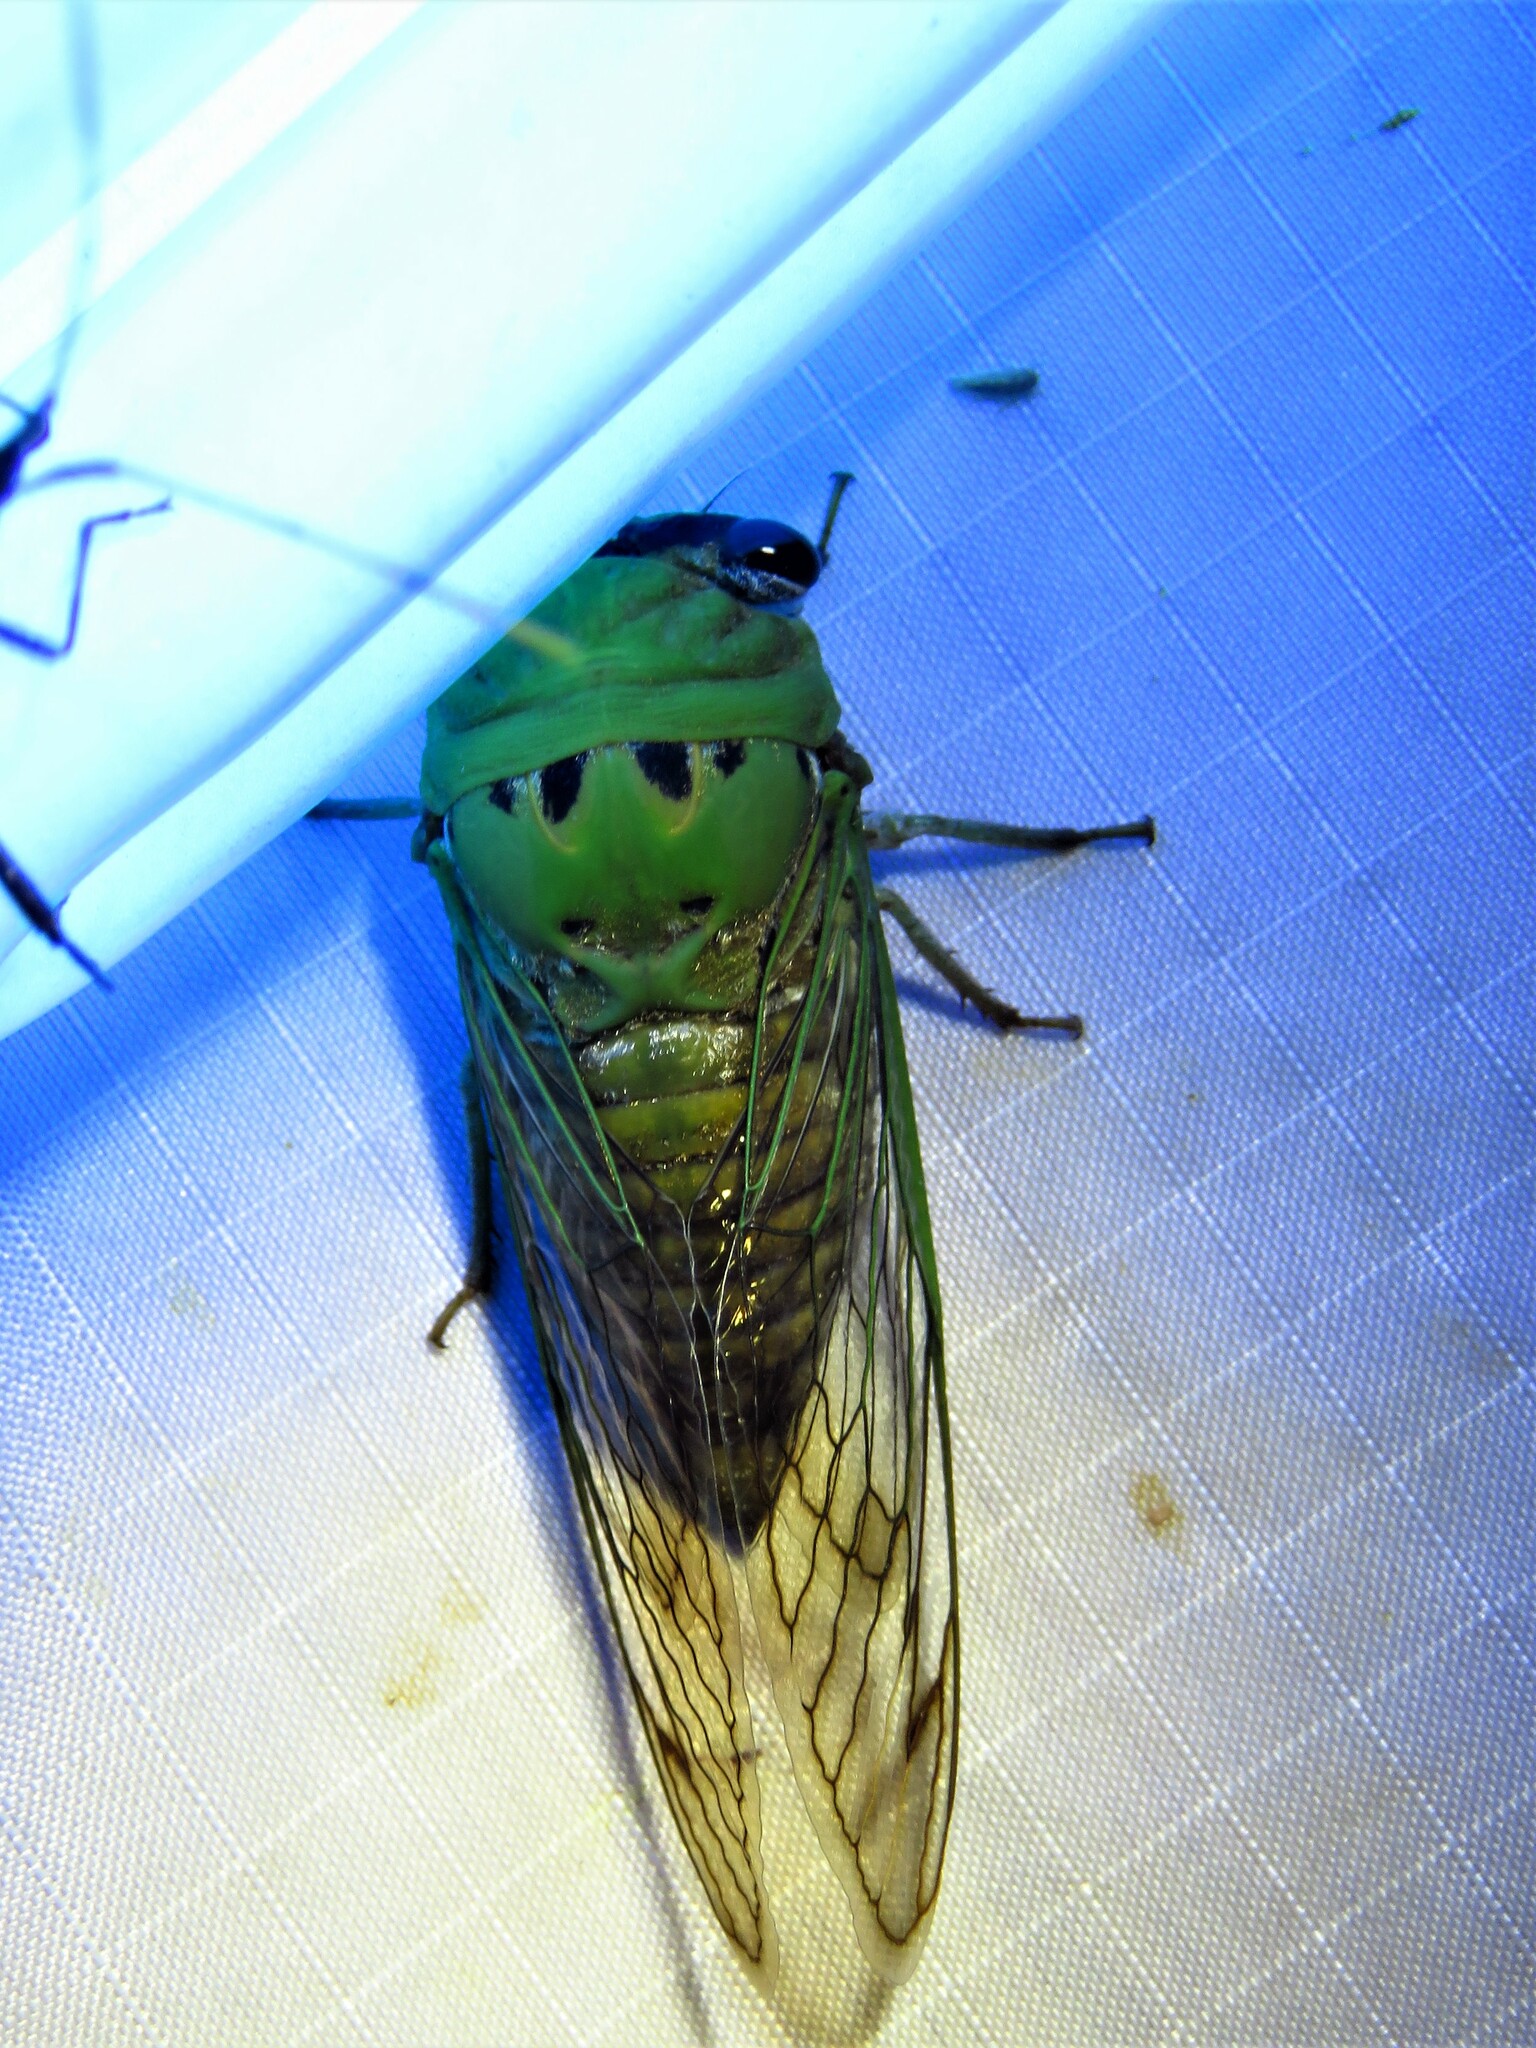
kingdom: Animalia
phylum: Arthropoda
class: Insecta
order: Hemiptera
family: Cicadidae
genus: Neotibicen
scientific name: Neotibicen superbus
